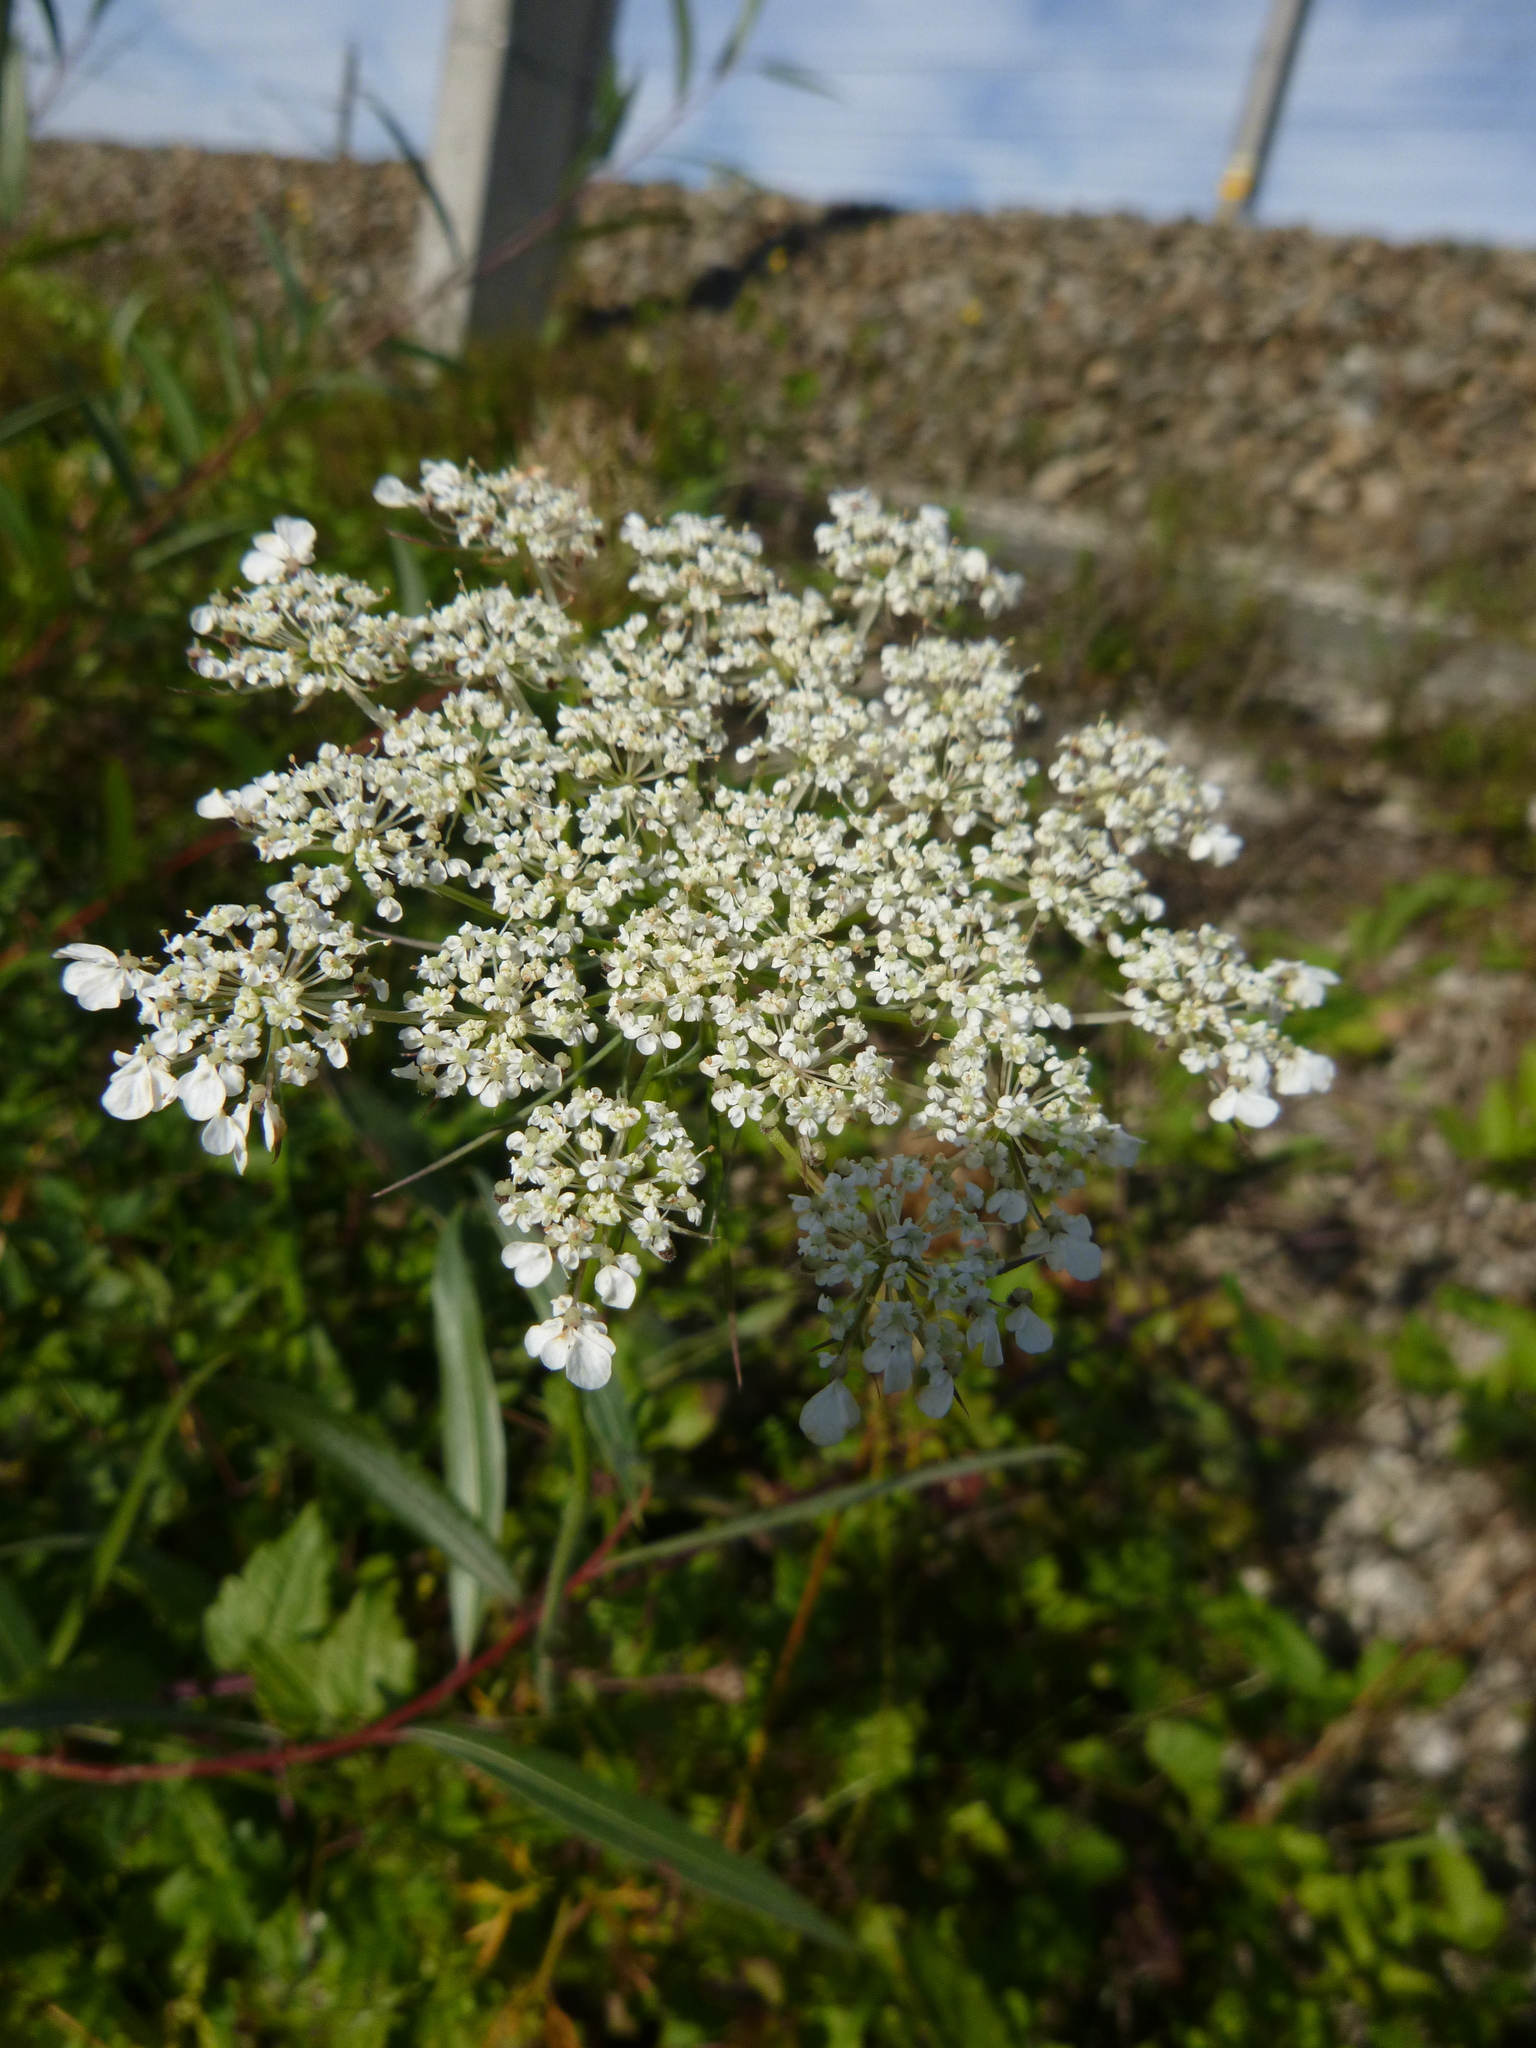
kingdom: Plantae
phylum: Tracheophyta
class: Magnoliopsida
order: Apiales
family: Apiaceae
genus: Daucus
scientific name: Daucus carota
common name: Wild carrot
